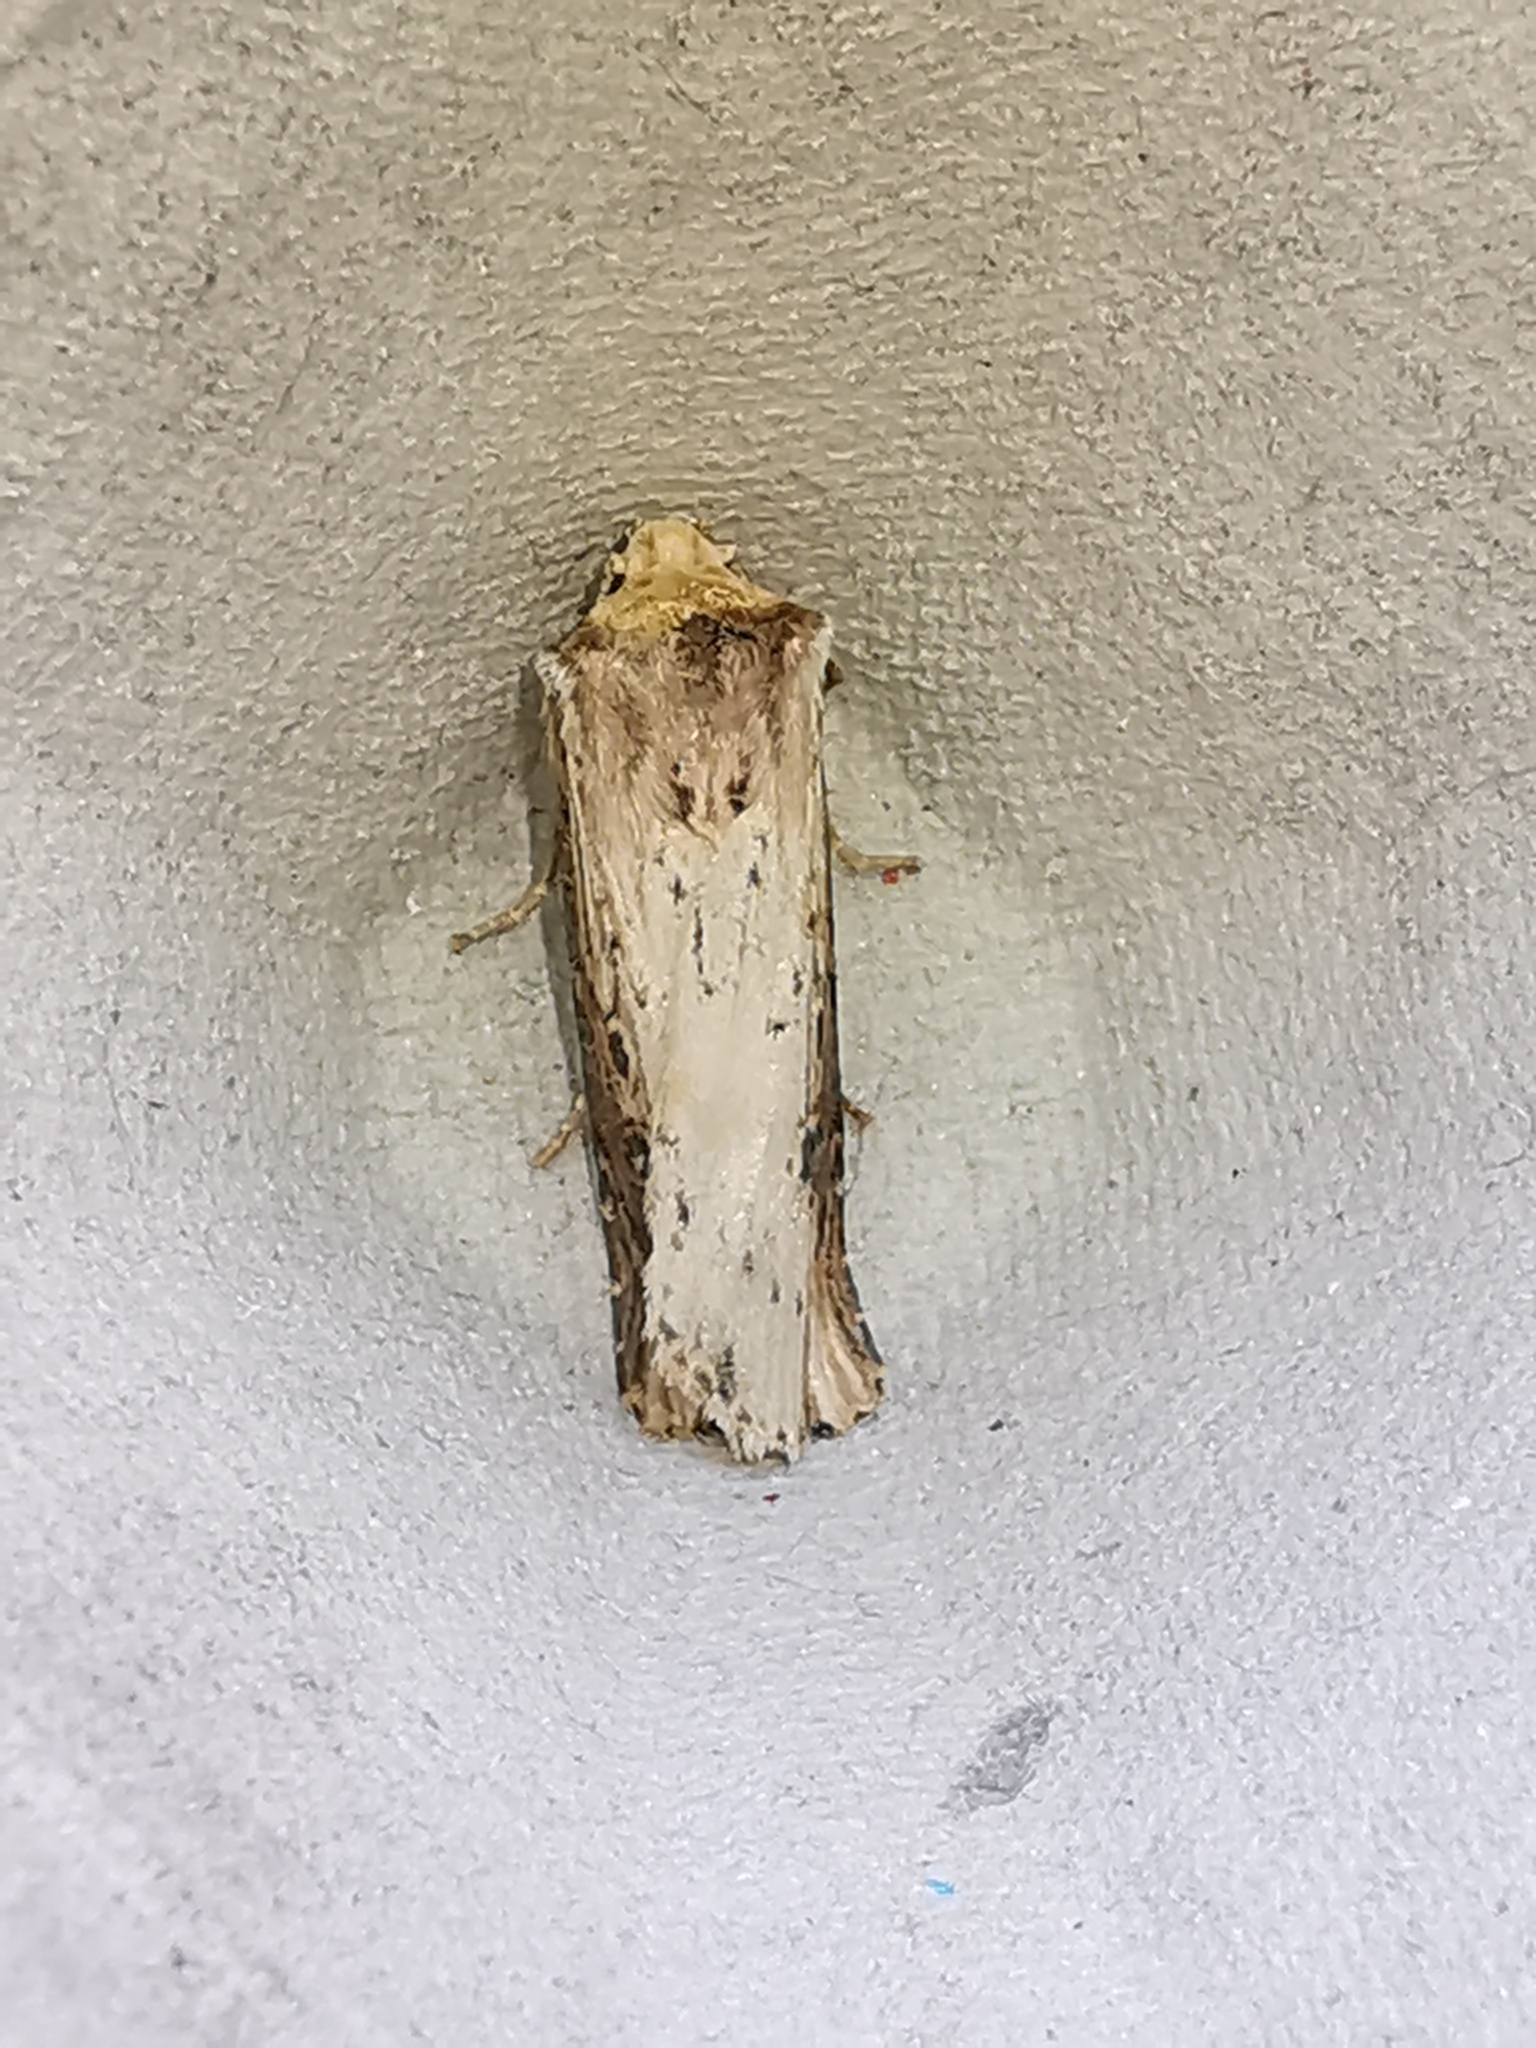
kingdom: Animalia
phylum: Arthropoda
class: Insecta
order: Lepidoptera
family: Noctuidae
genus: Axylia
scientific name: Axylia putris
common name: Flame
